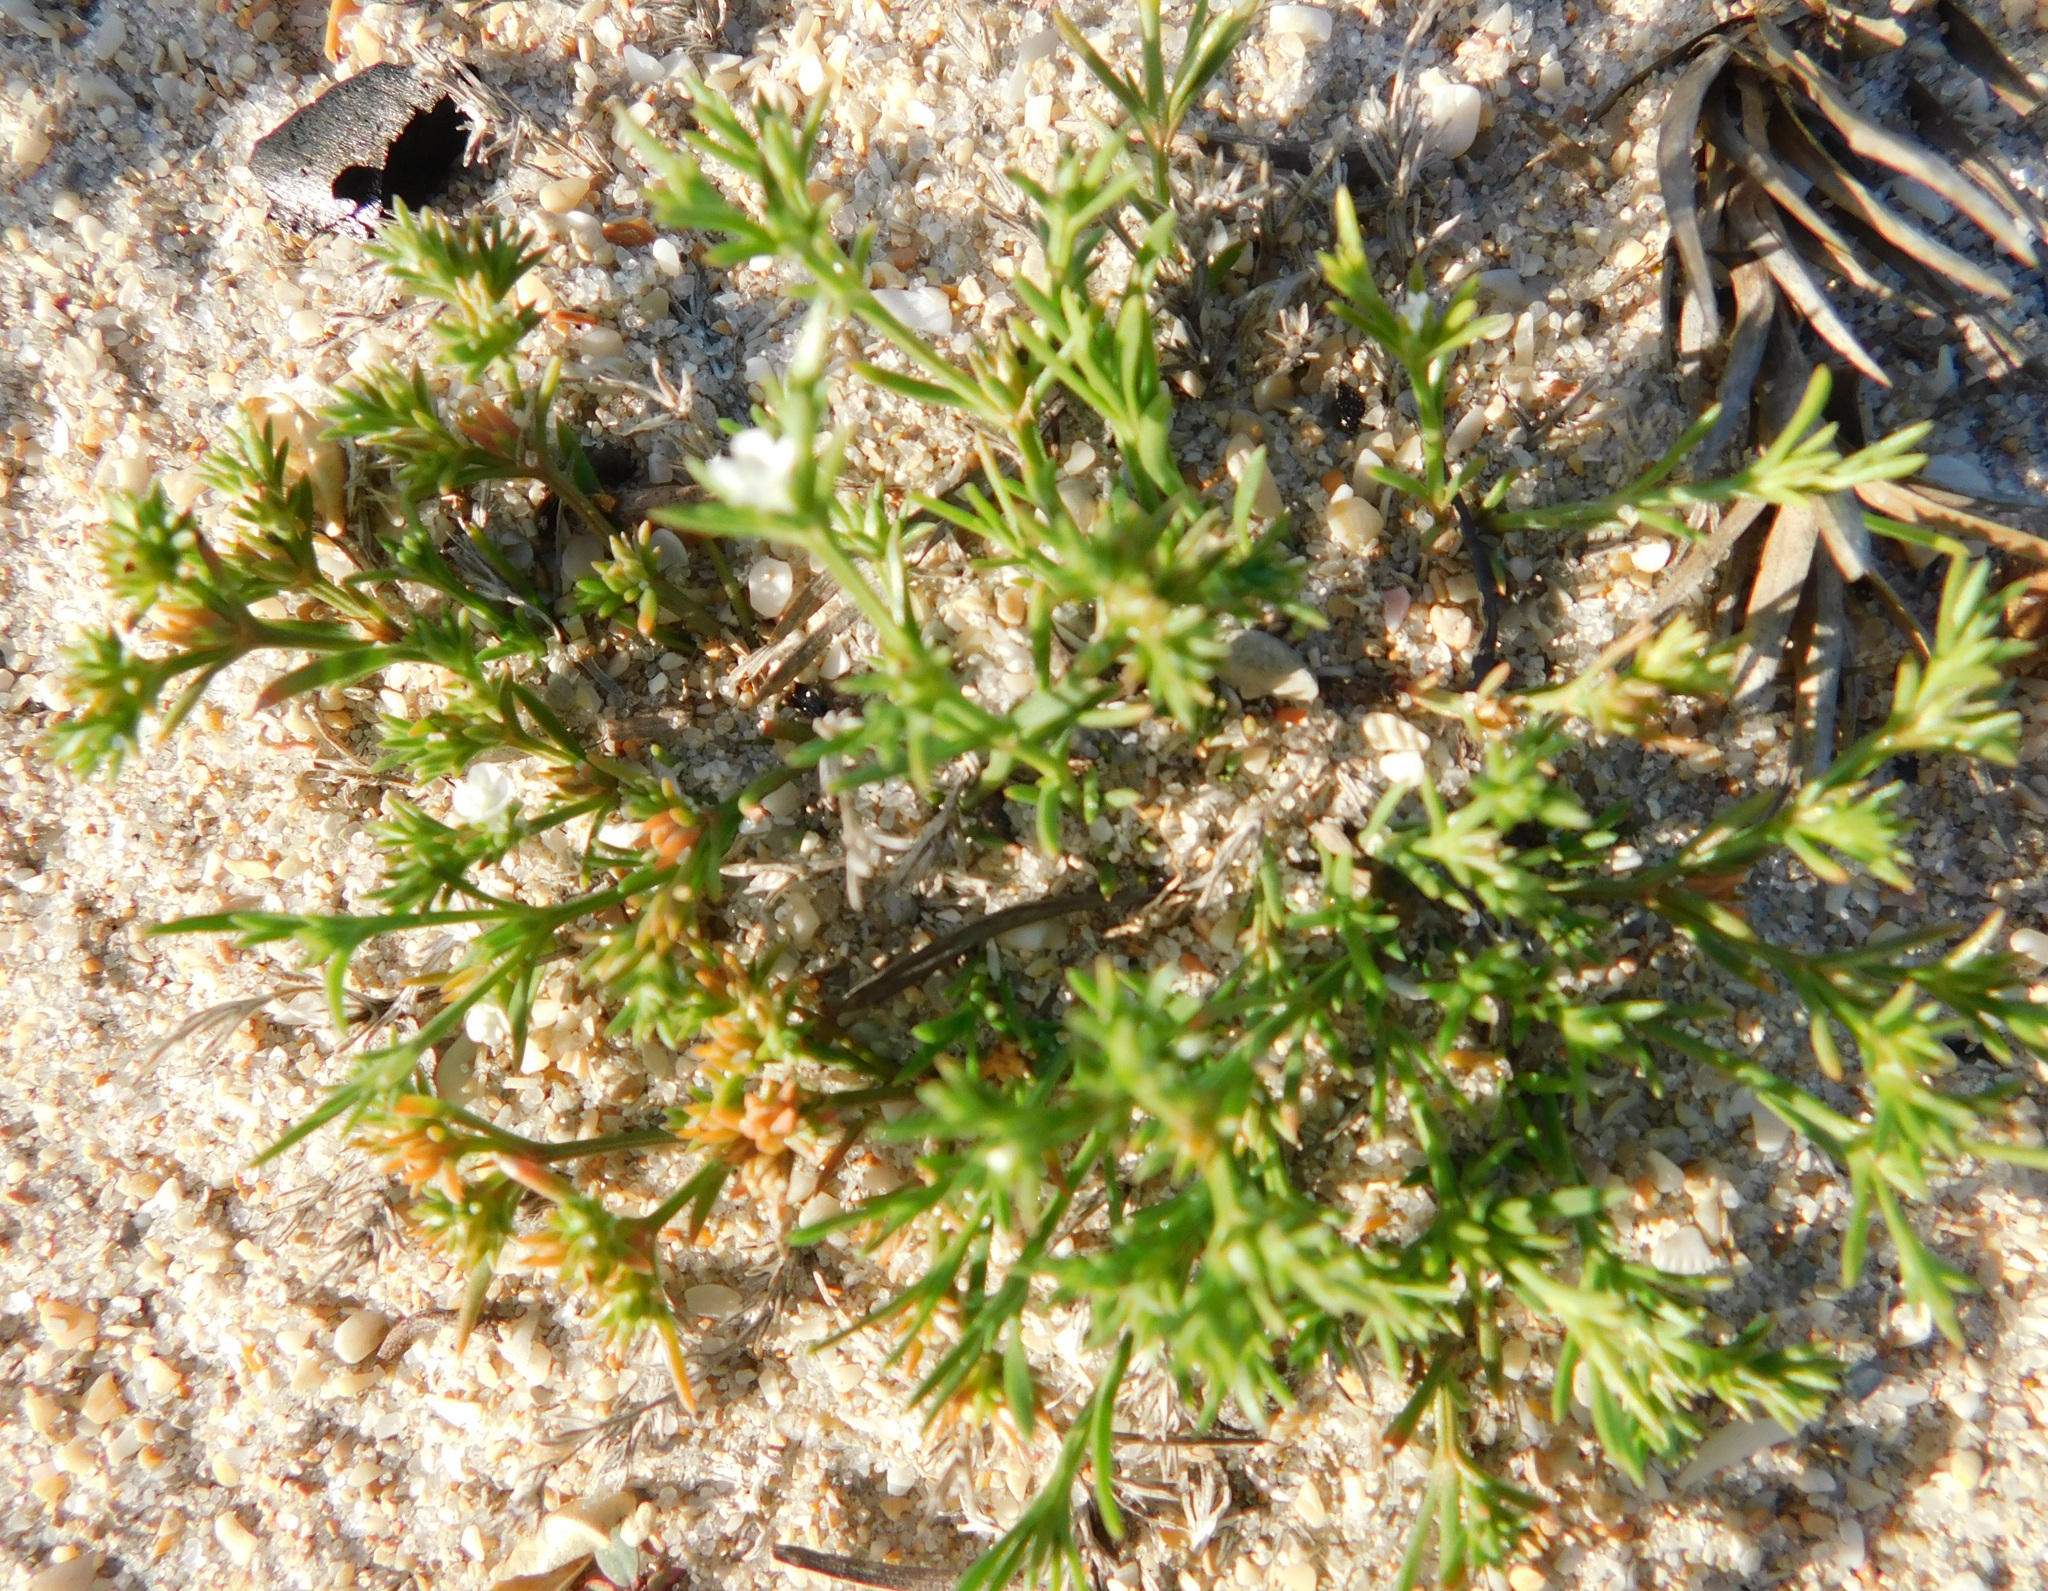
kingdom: Plantae
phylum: Tracheophyta
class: Magnoliopsida
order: Lamiales
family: Tetrachondraceae
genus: Polypremum
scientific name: Polypremum procumbens
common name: Juniper-leaf
